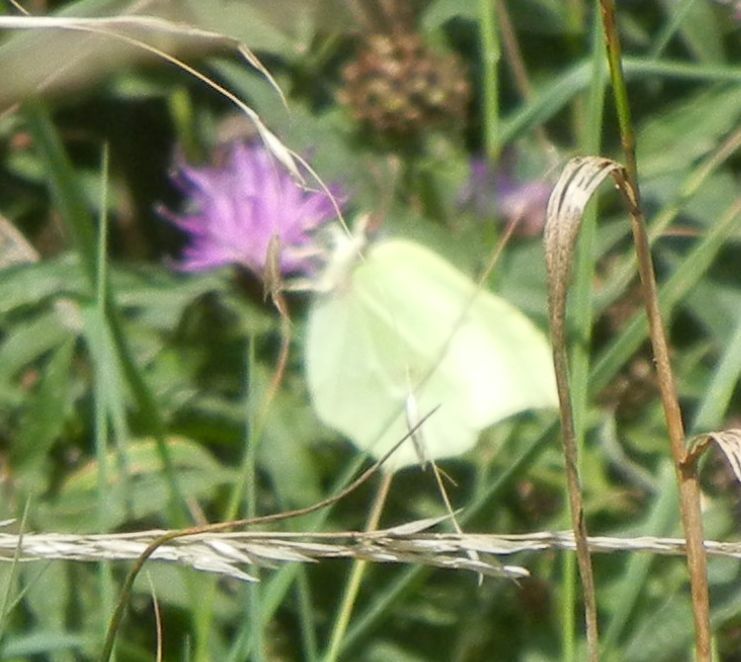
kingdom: Animalia
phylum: Arthropoda
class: Insecta
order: Lepidoptera
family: Pieridae
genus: Gonepteryx
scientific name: Gonepteryx rhamni
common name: Brimstone
